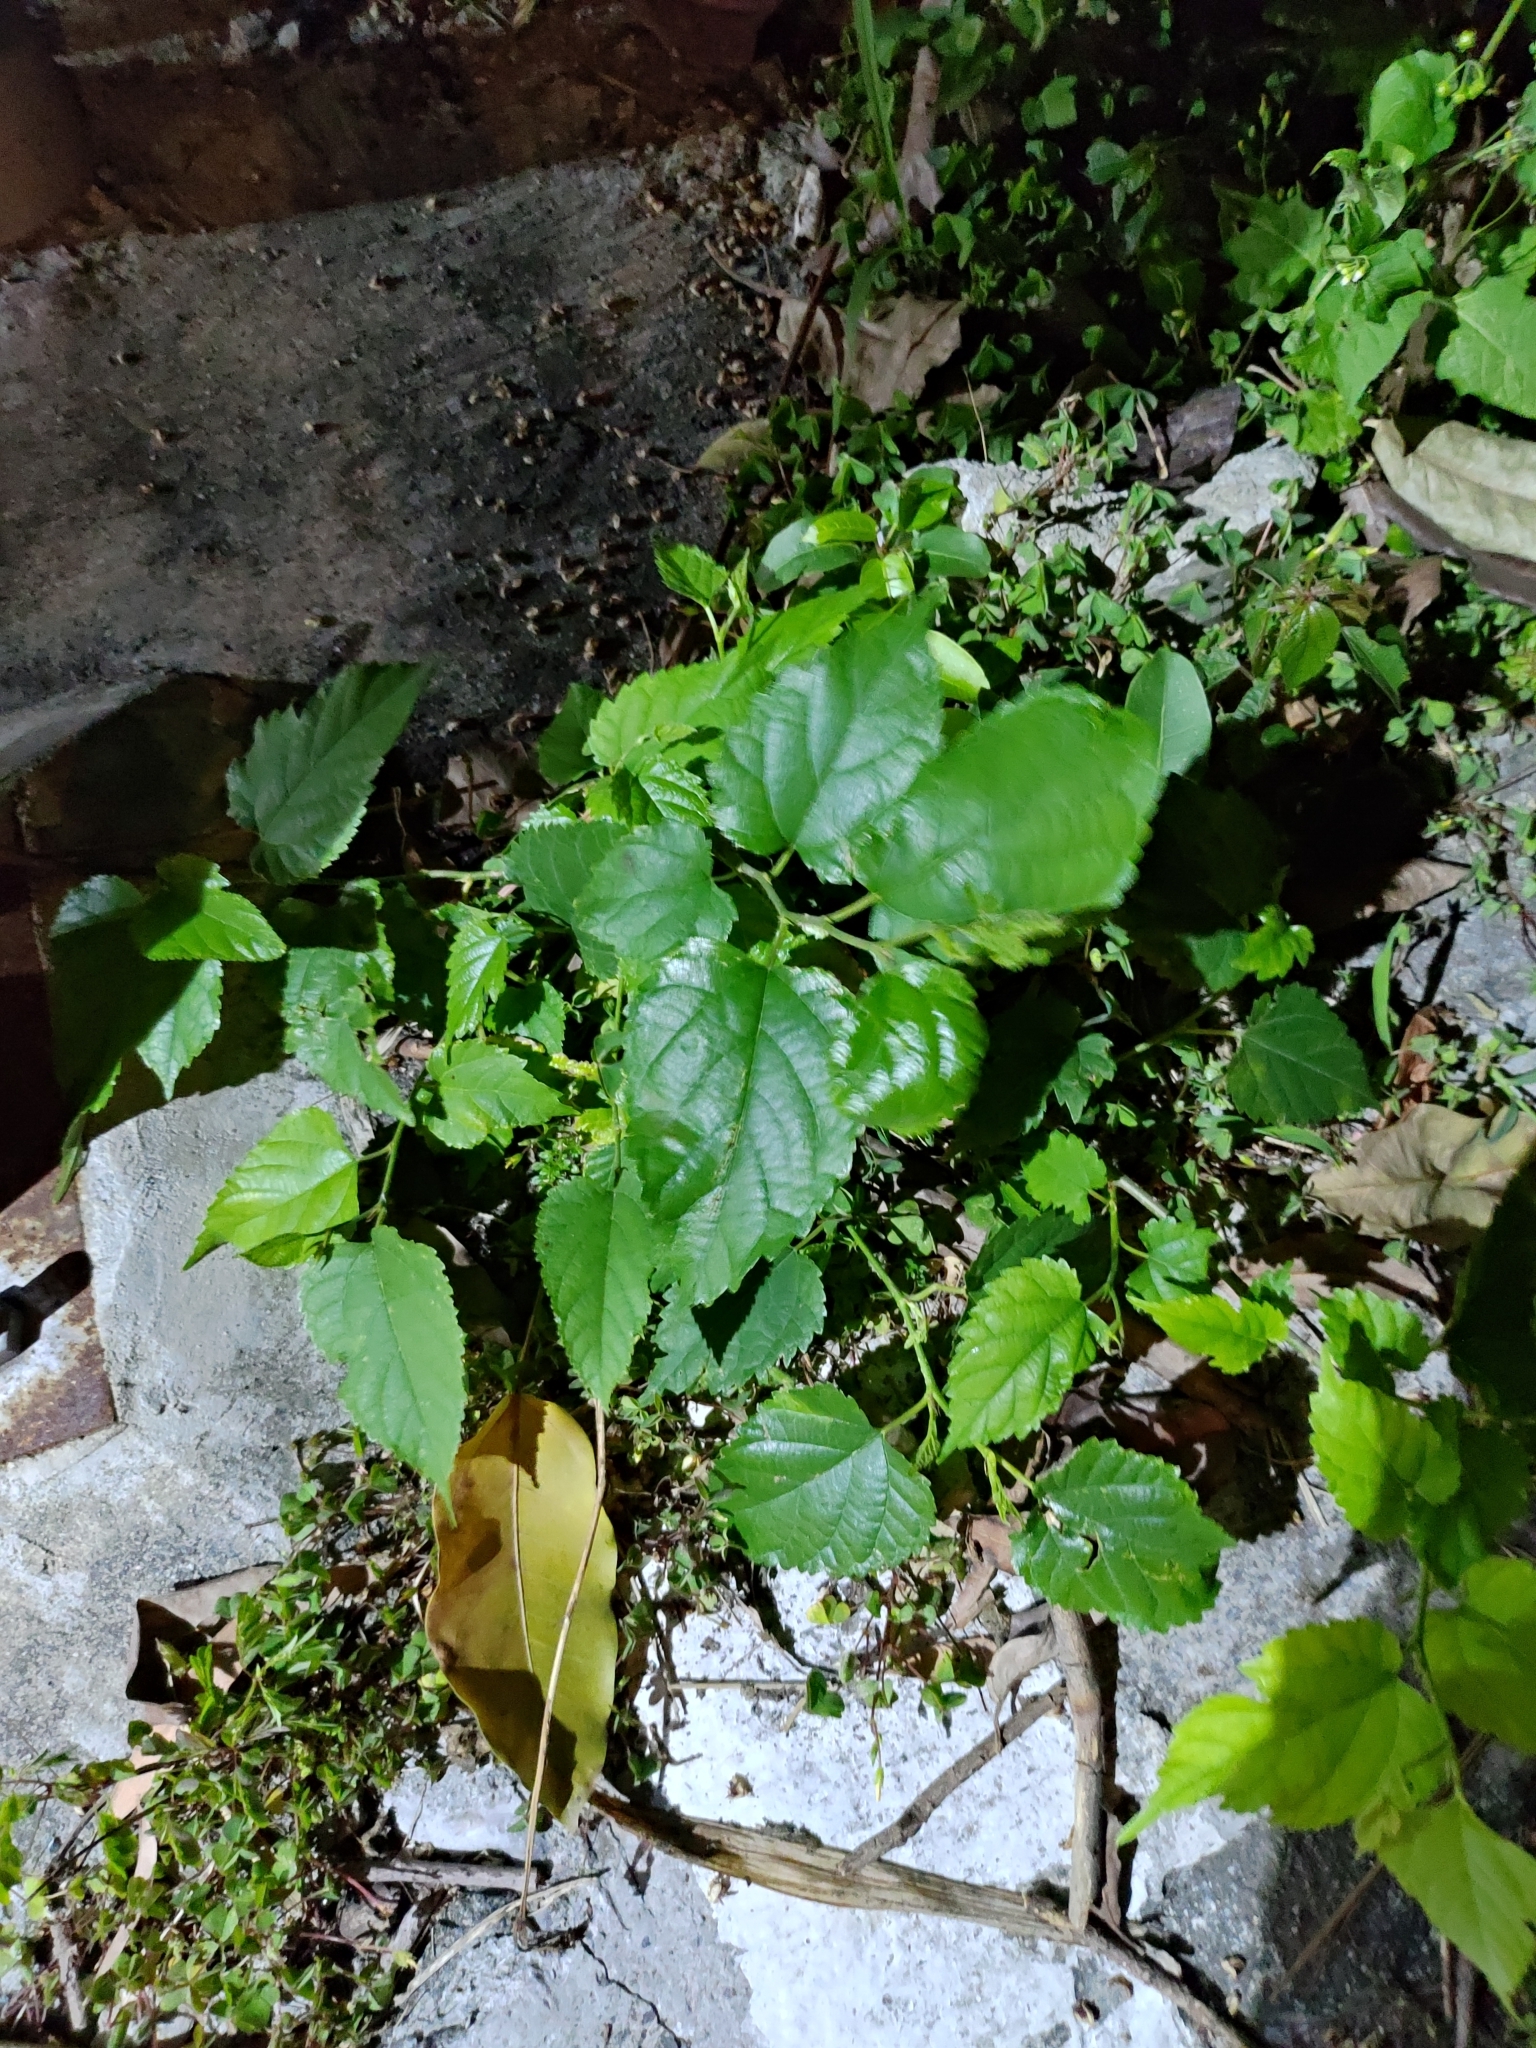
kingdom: Plantae
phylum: Tracheophyta
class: Magnoliopsida
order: Rosales
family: Moraceae
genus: Morus
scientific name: Morus indica
